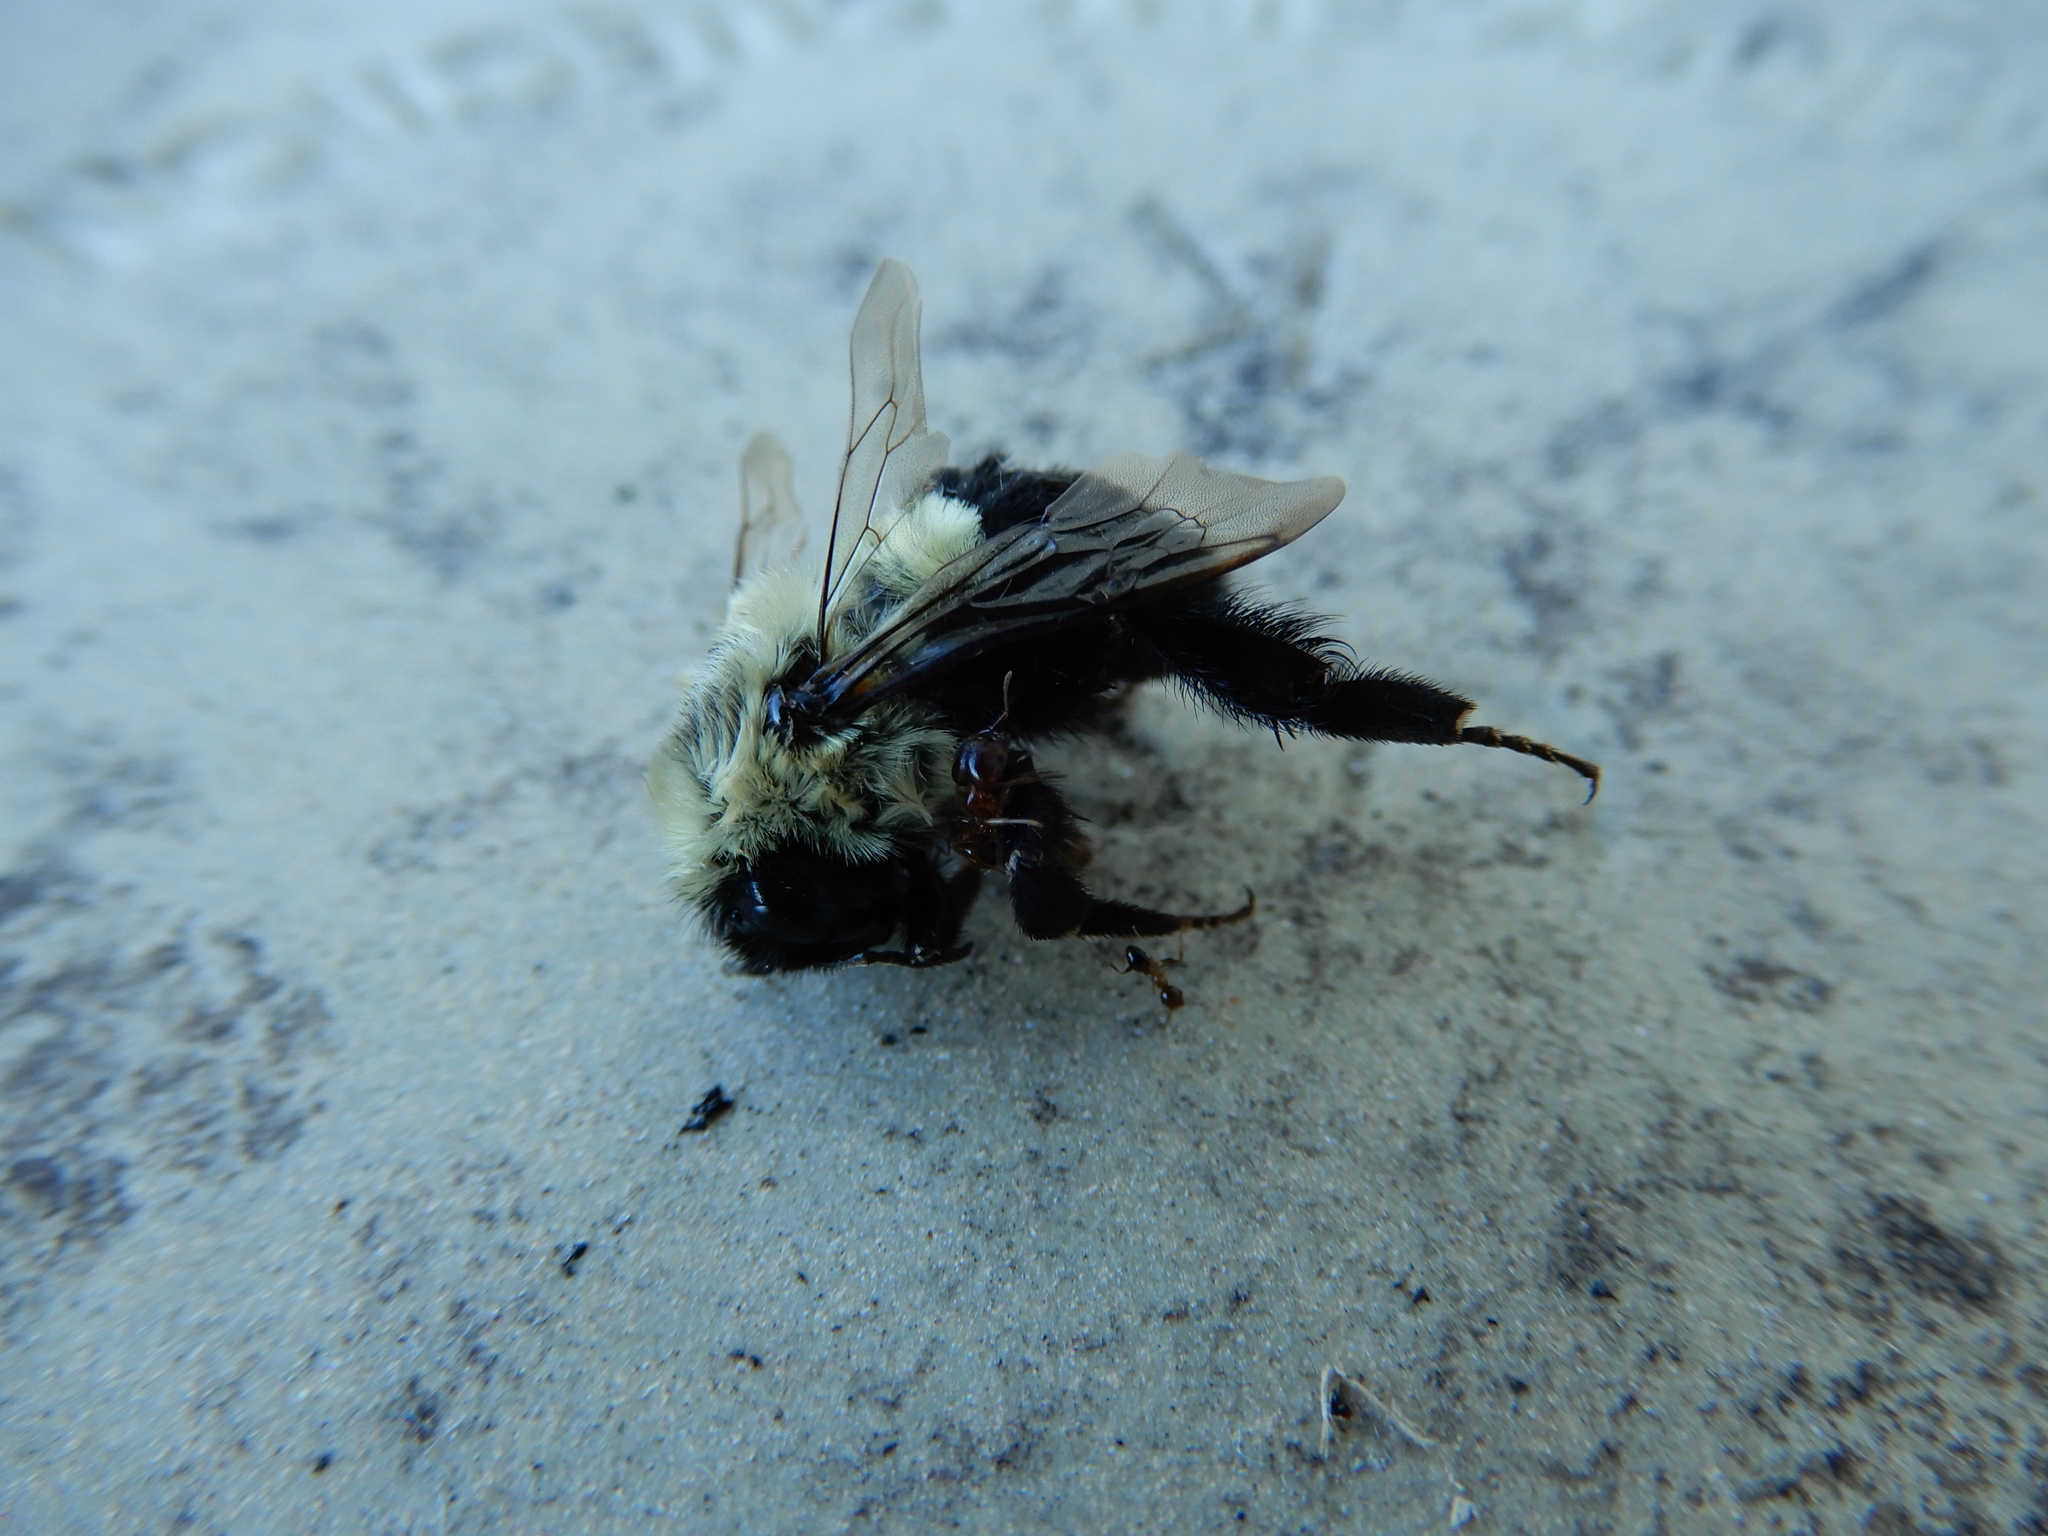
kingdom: Animalia
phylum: Arthropoda
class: Insecta
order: Hymenoptera
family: Apidae
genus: Bombus
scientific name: Bombus impatiens
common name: Common eastern bumble bee
